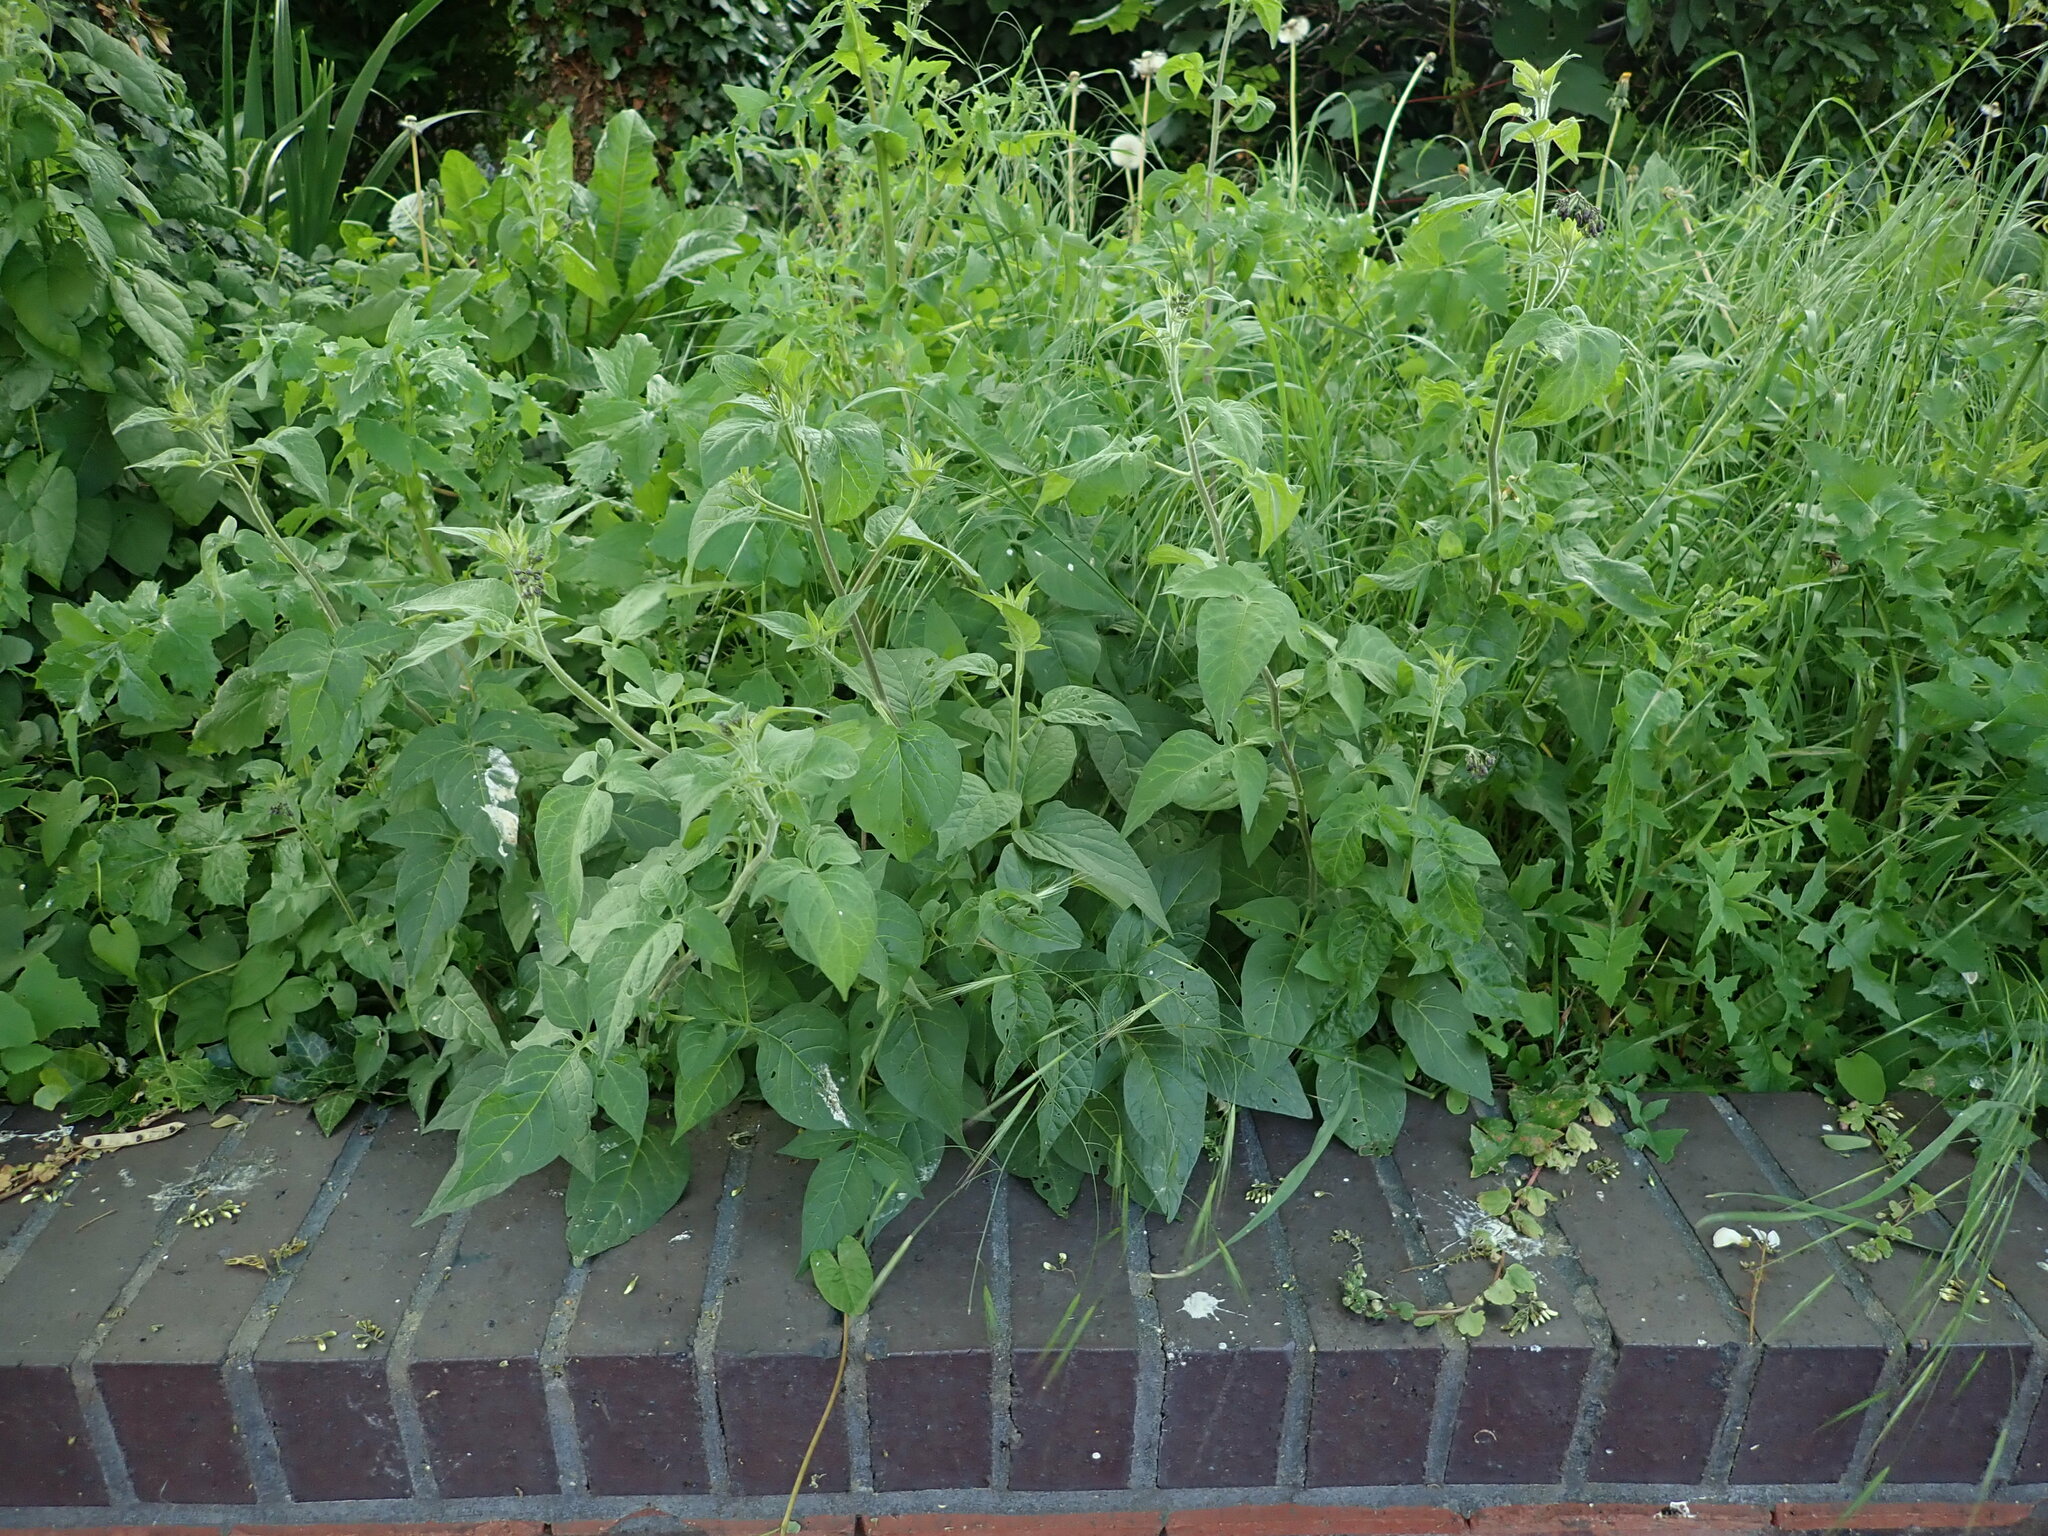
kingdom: Plantae
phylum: Tracheophyta
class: Magnoliopsida
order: Solanales
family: Solanaceae
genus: Solanum
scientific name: Solanum dulcamara
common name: Climbing nightshade
